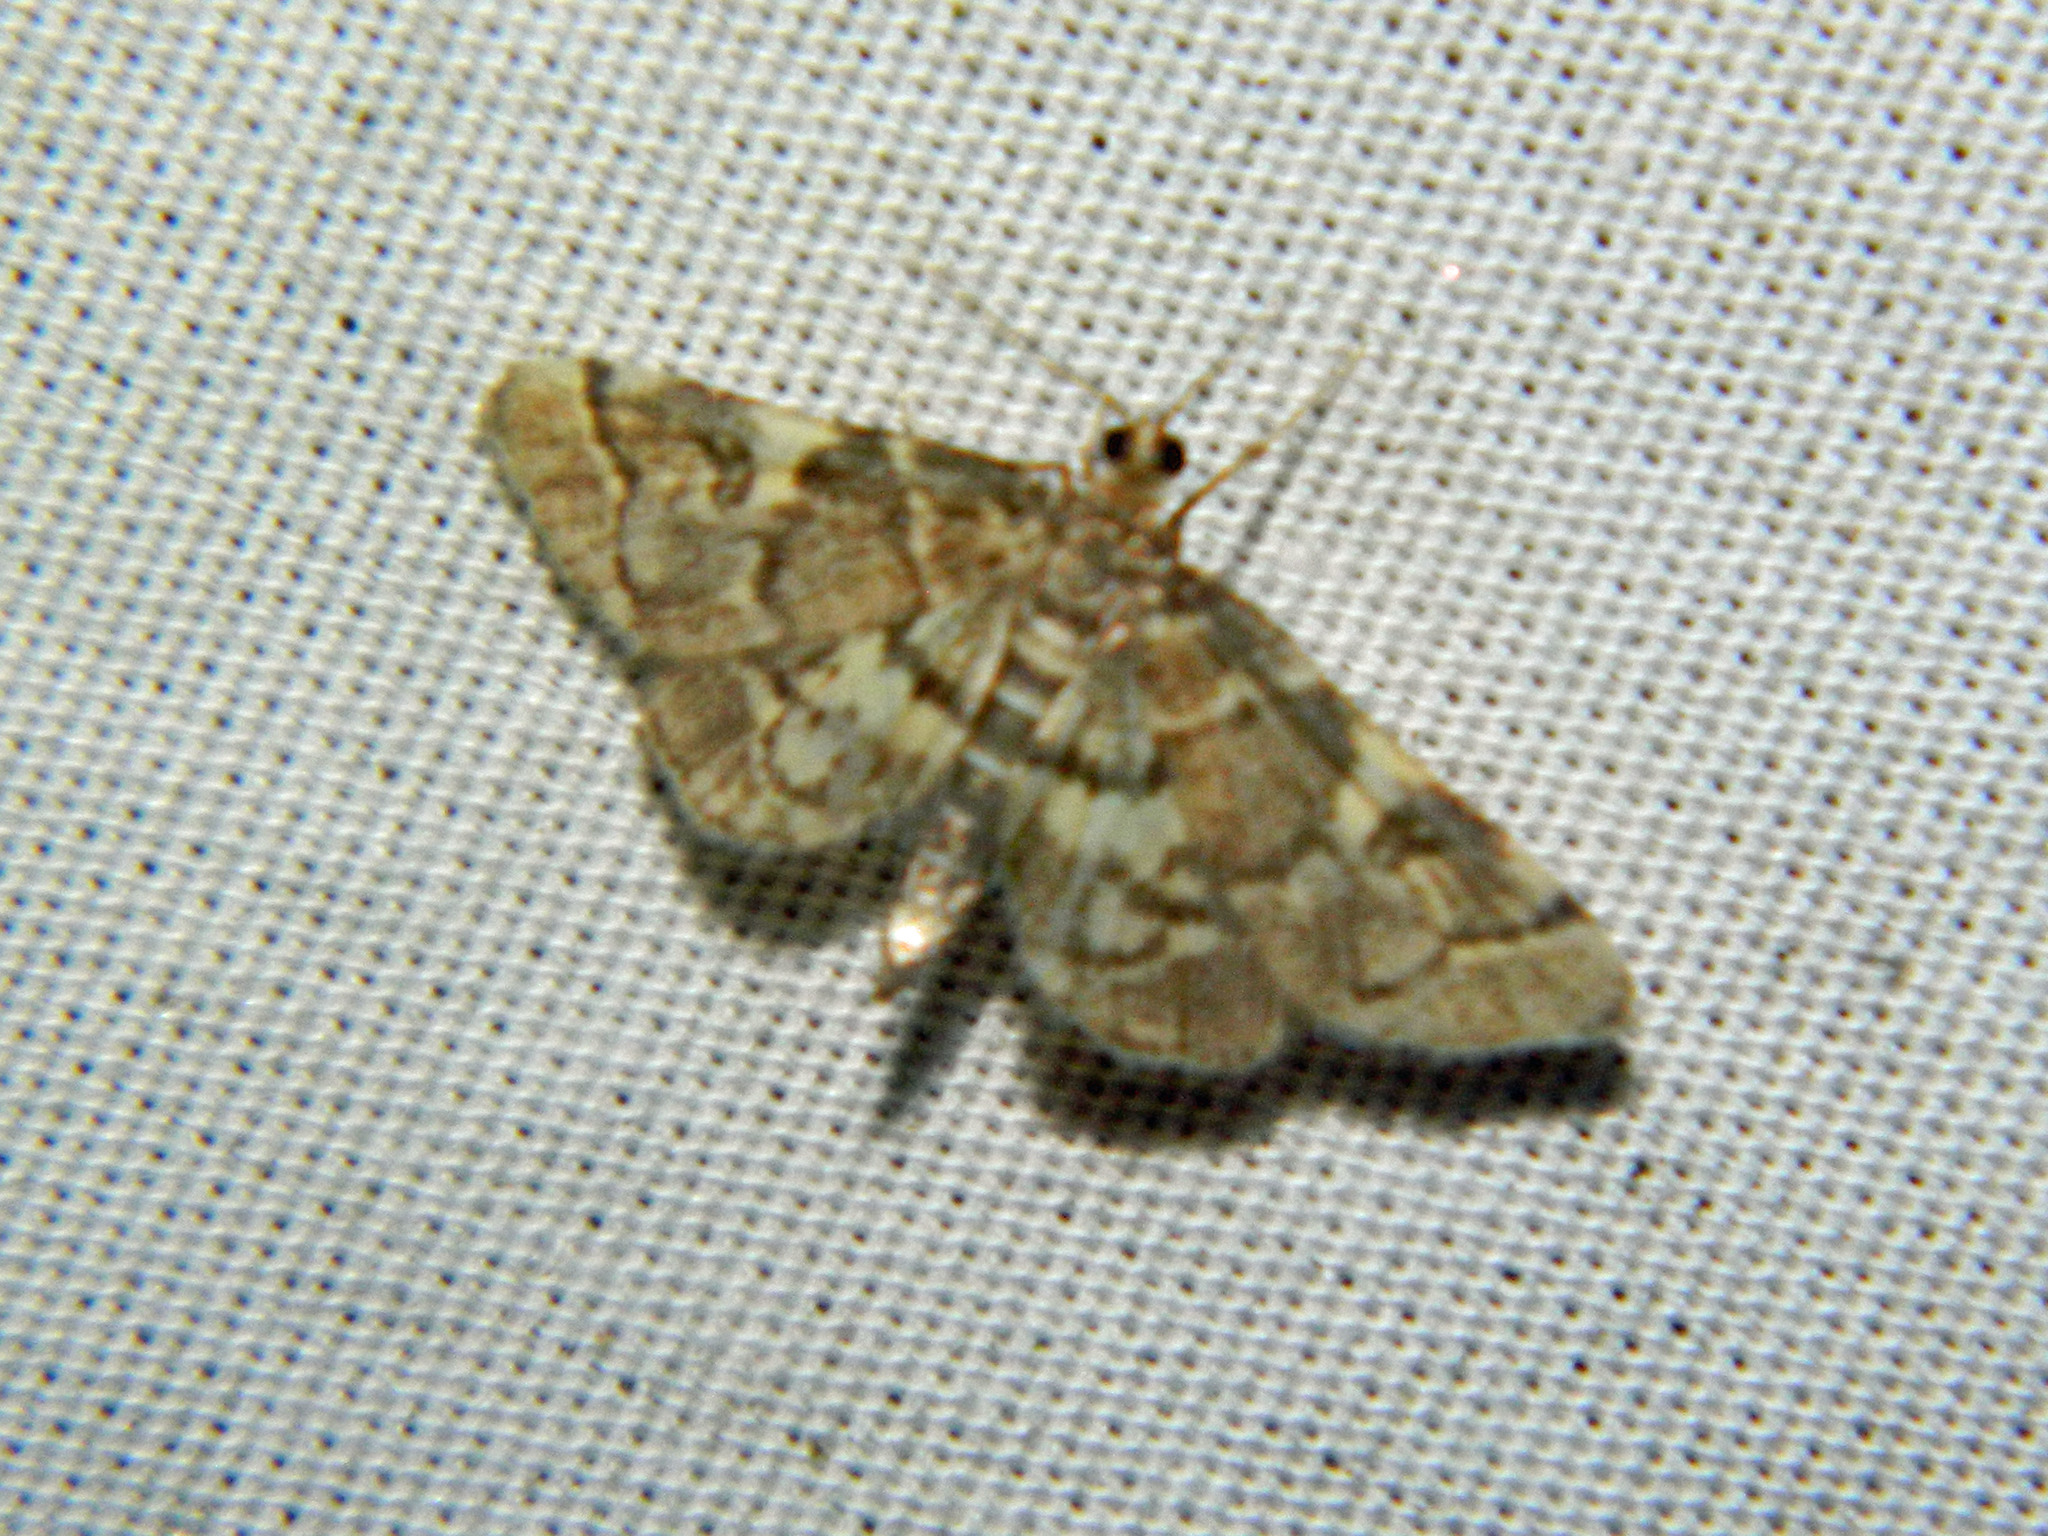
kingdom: Animalia
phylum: Arthropoda
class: Insecta
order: Lepidoptera
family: Crambidae
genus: Anageshna
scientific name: Anageshna primordialis
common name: Yellow-spotted webworm moth
